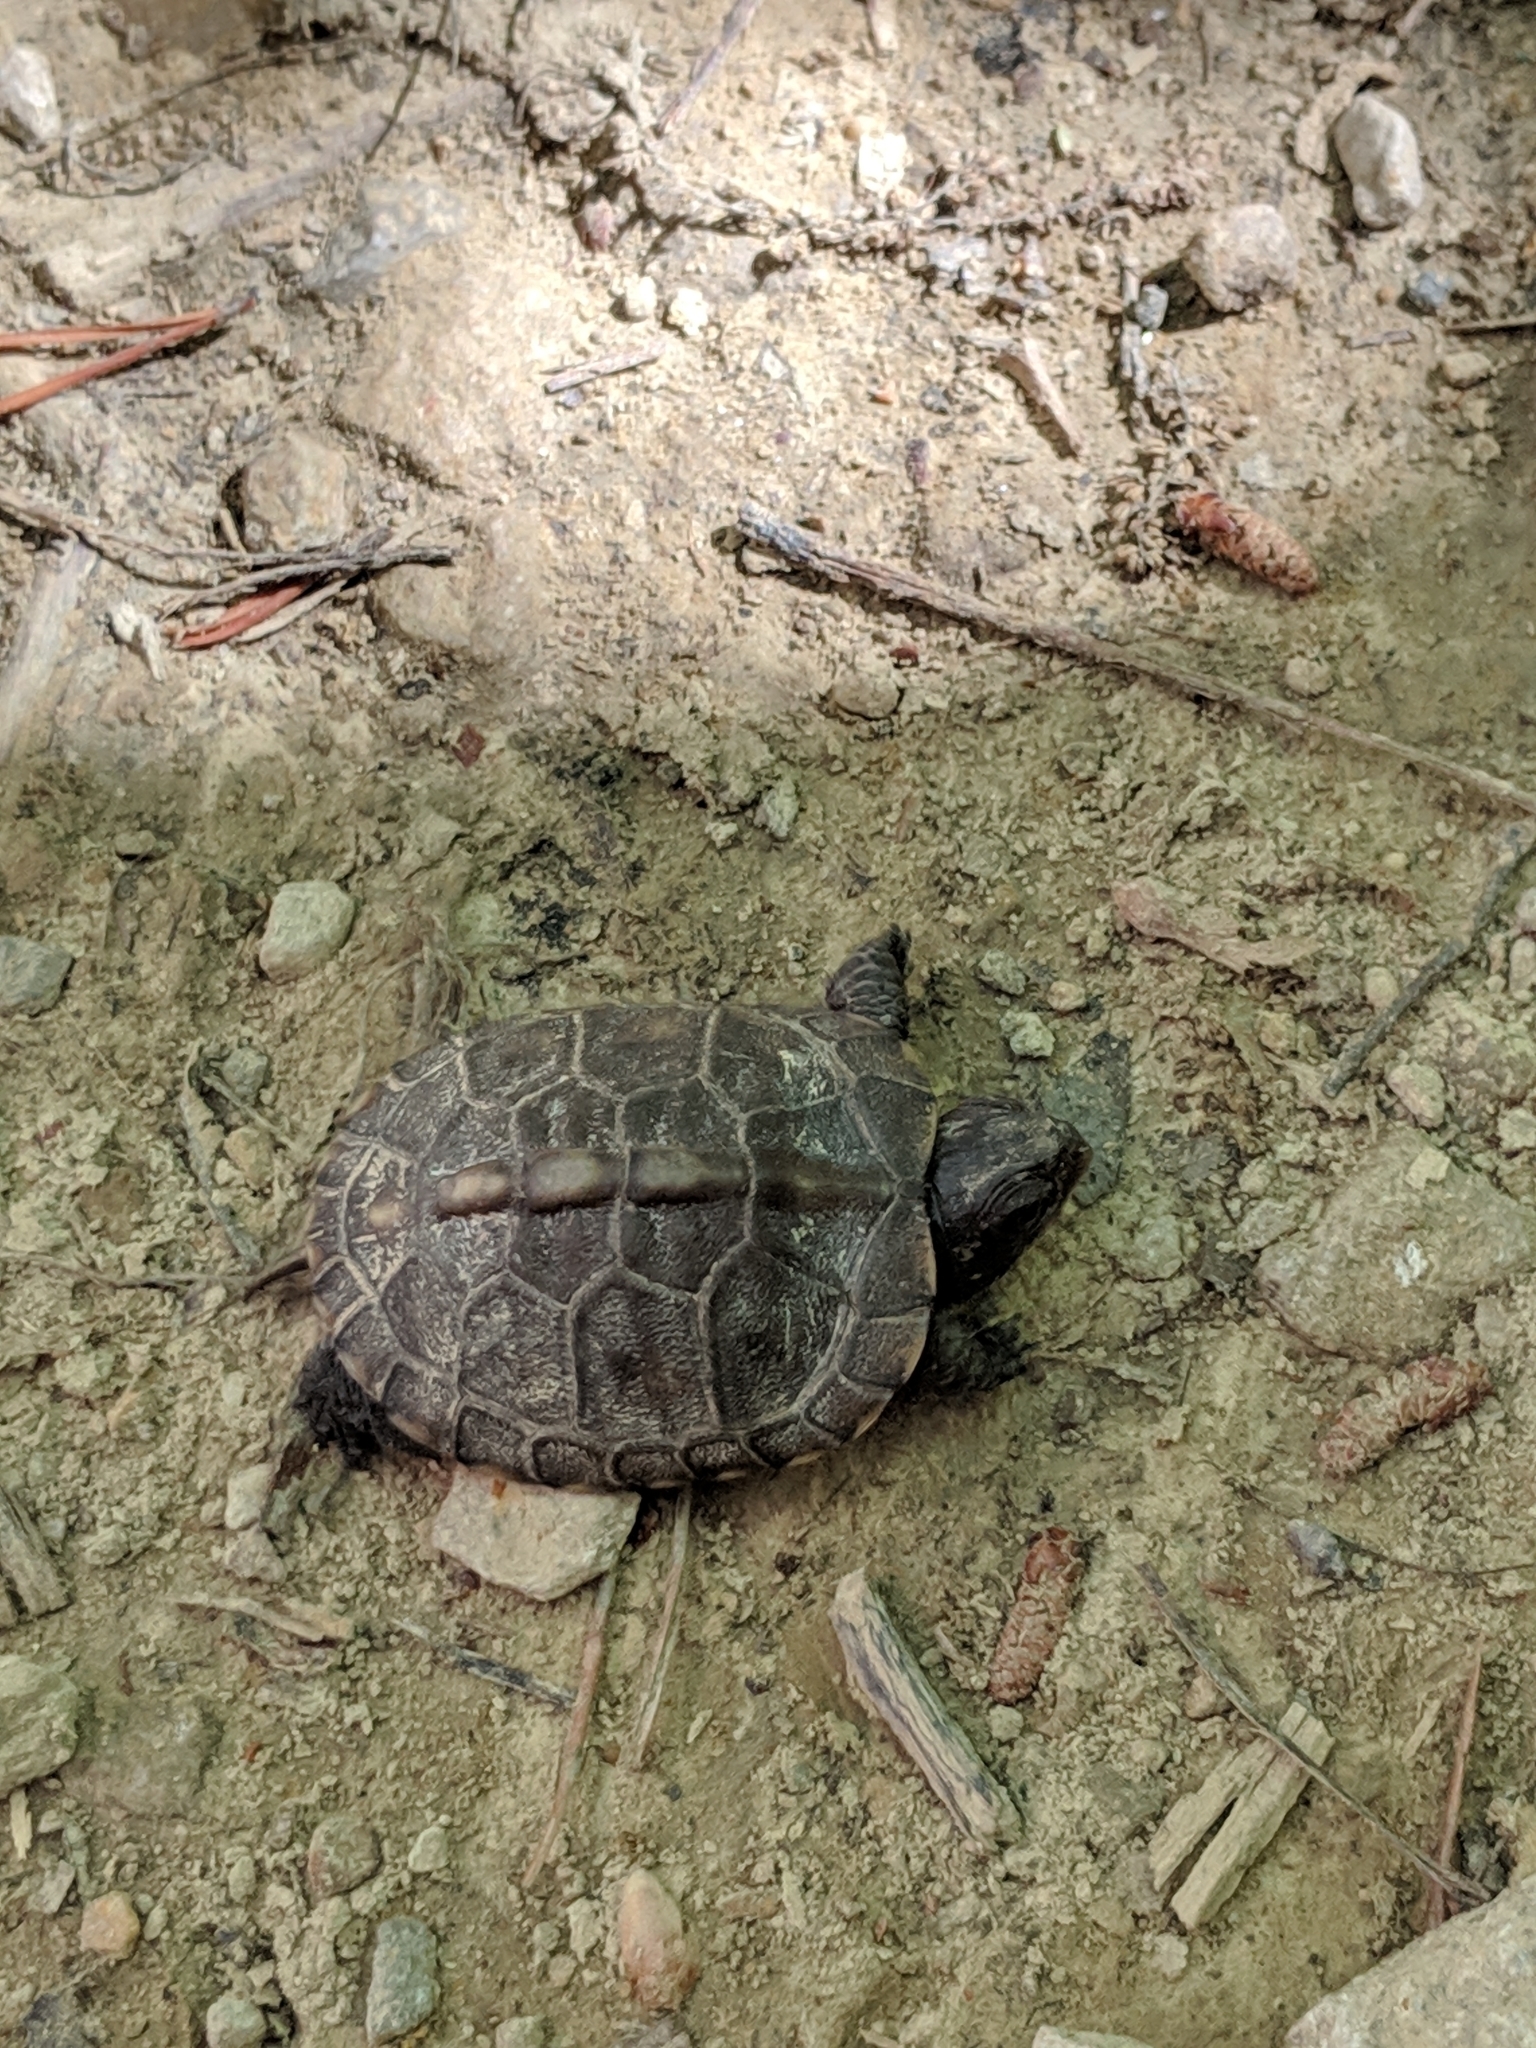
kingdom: Animalia
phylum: Chordata
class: Testudines
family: Emydidae
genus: Terrapene
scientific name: Terrapene carolina
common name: Common box turtle
